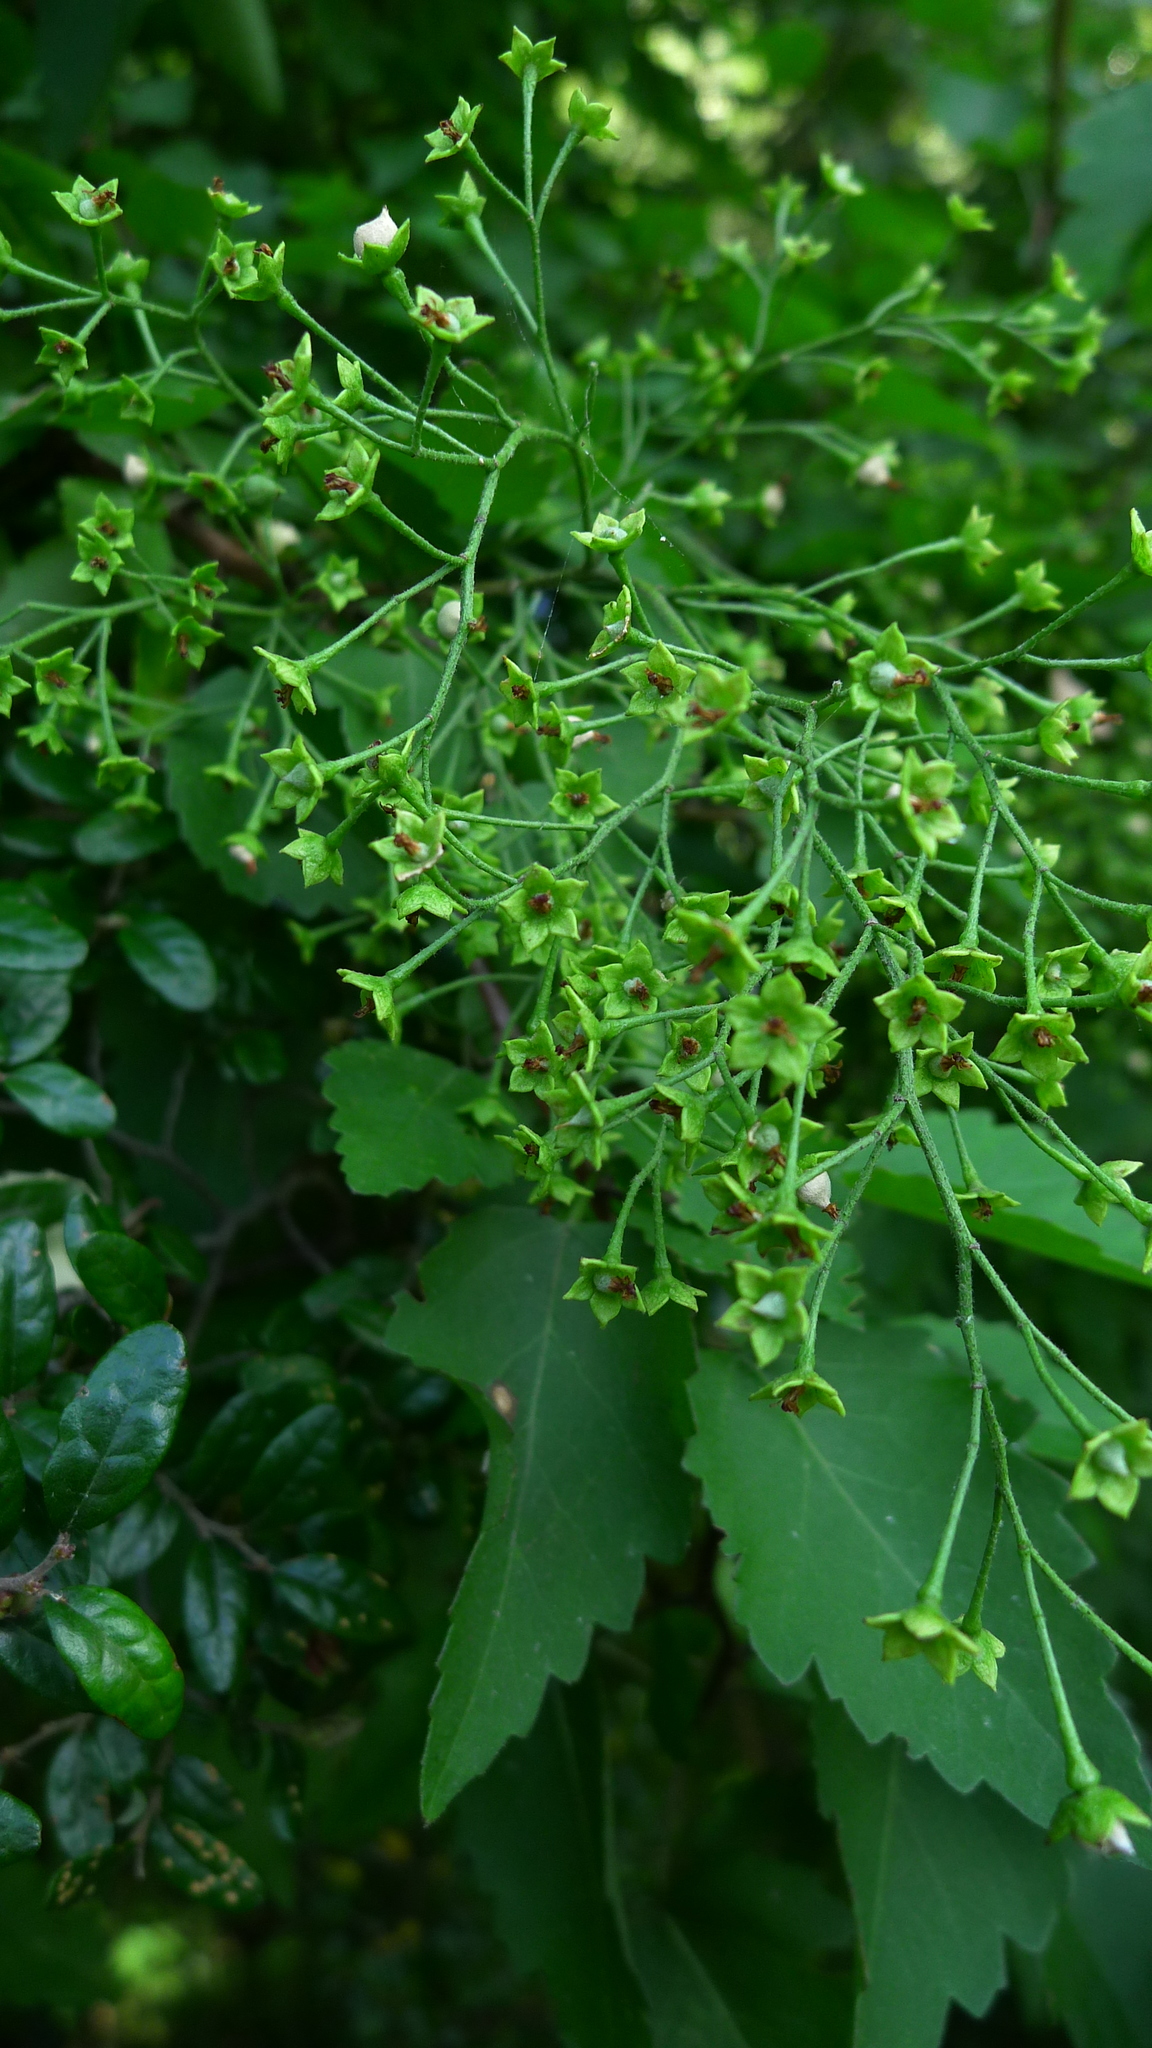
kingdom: Plantae
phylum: Tracheophyta
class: Magnoliopsida
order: Malvales
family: Malvaceae
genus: Plagianthus
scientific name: Plagianthus regius
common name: Manatu
